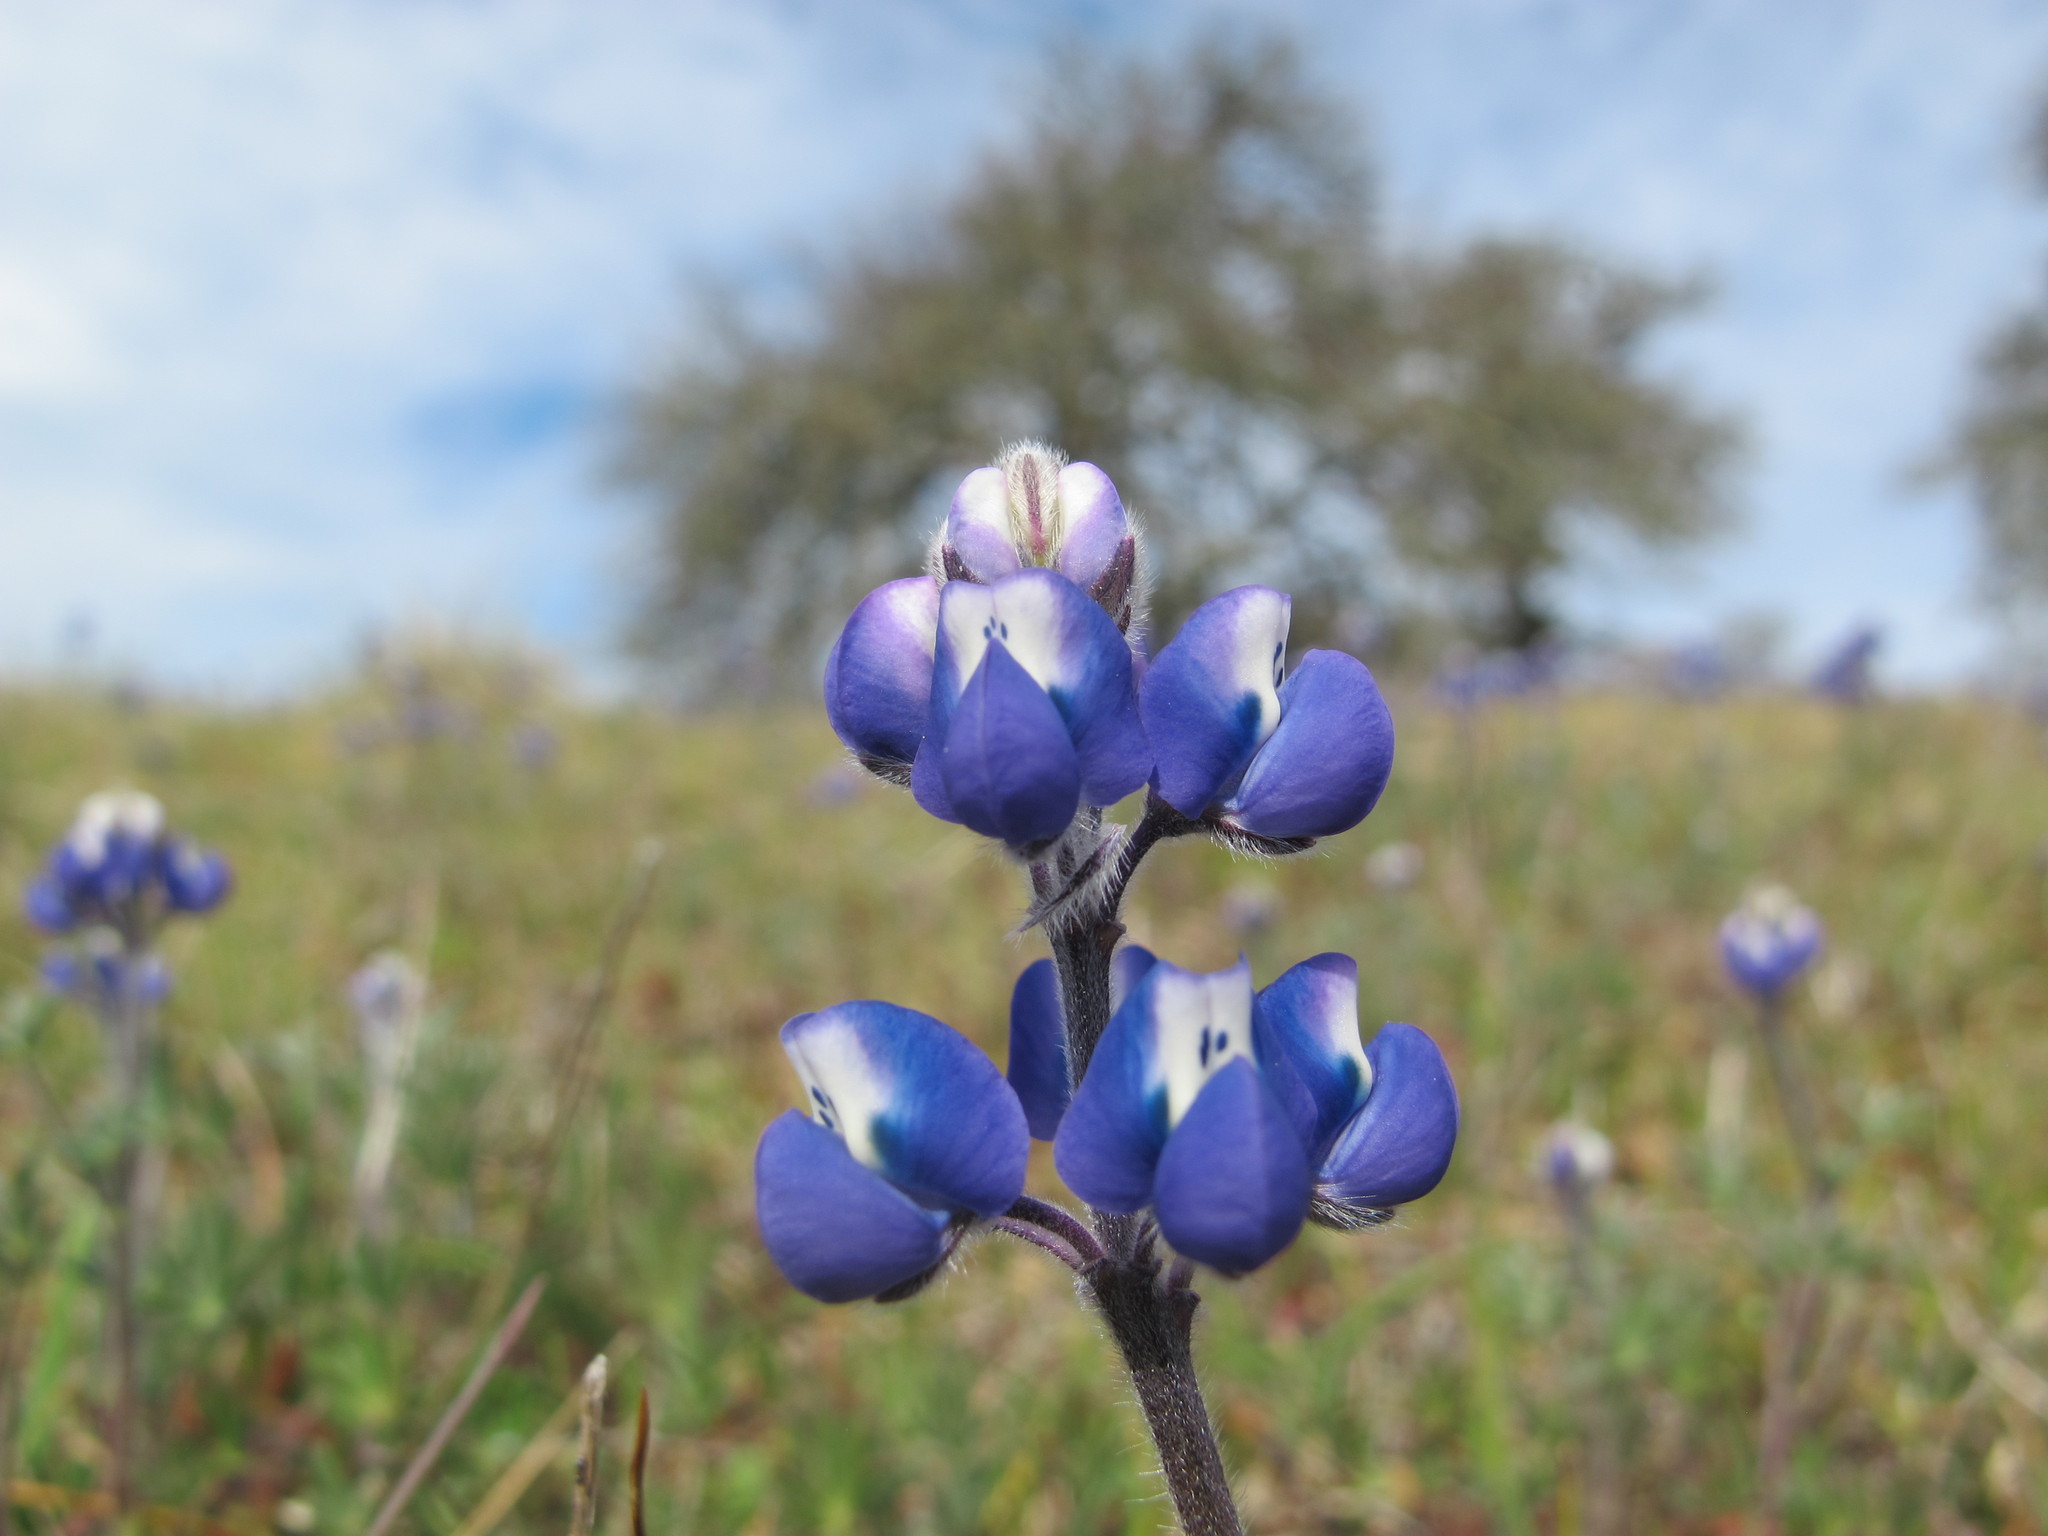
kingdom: Plantae
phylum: Tracheophyta
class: Magnoliopsida
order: Fabales
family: Fabaceae
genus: Lupinus
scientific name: Lupinus bicolor
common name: Miniature lupine
